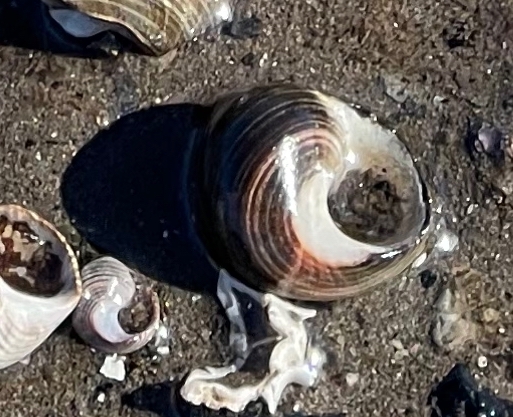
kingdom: Animalia
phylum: Mollusca
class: Gastropoda
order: Littorinimorpha
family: Littorinidae
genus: Littorina
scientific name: Littorina littorea
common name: Common periwinkle
